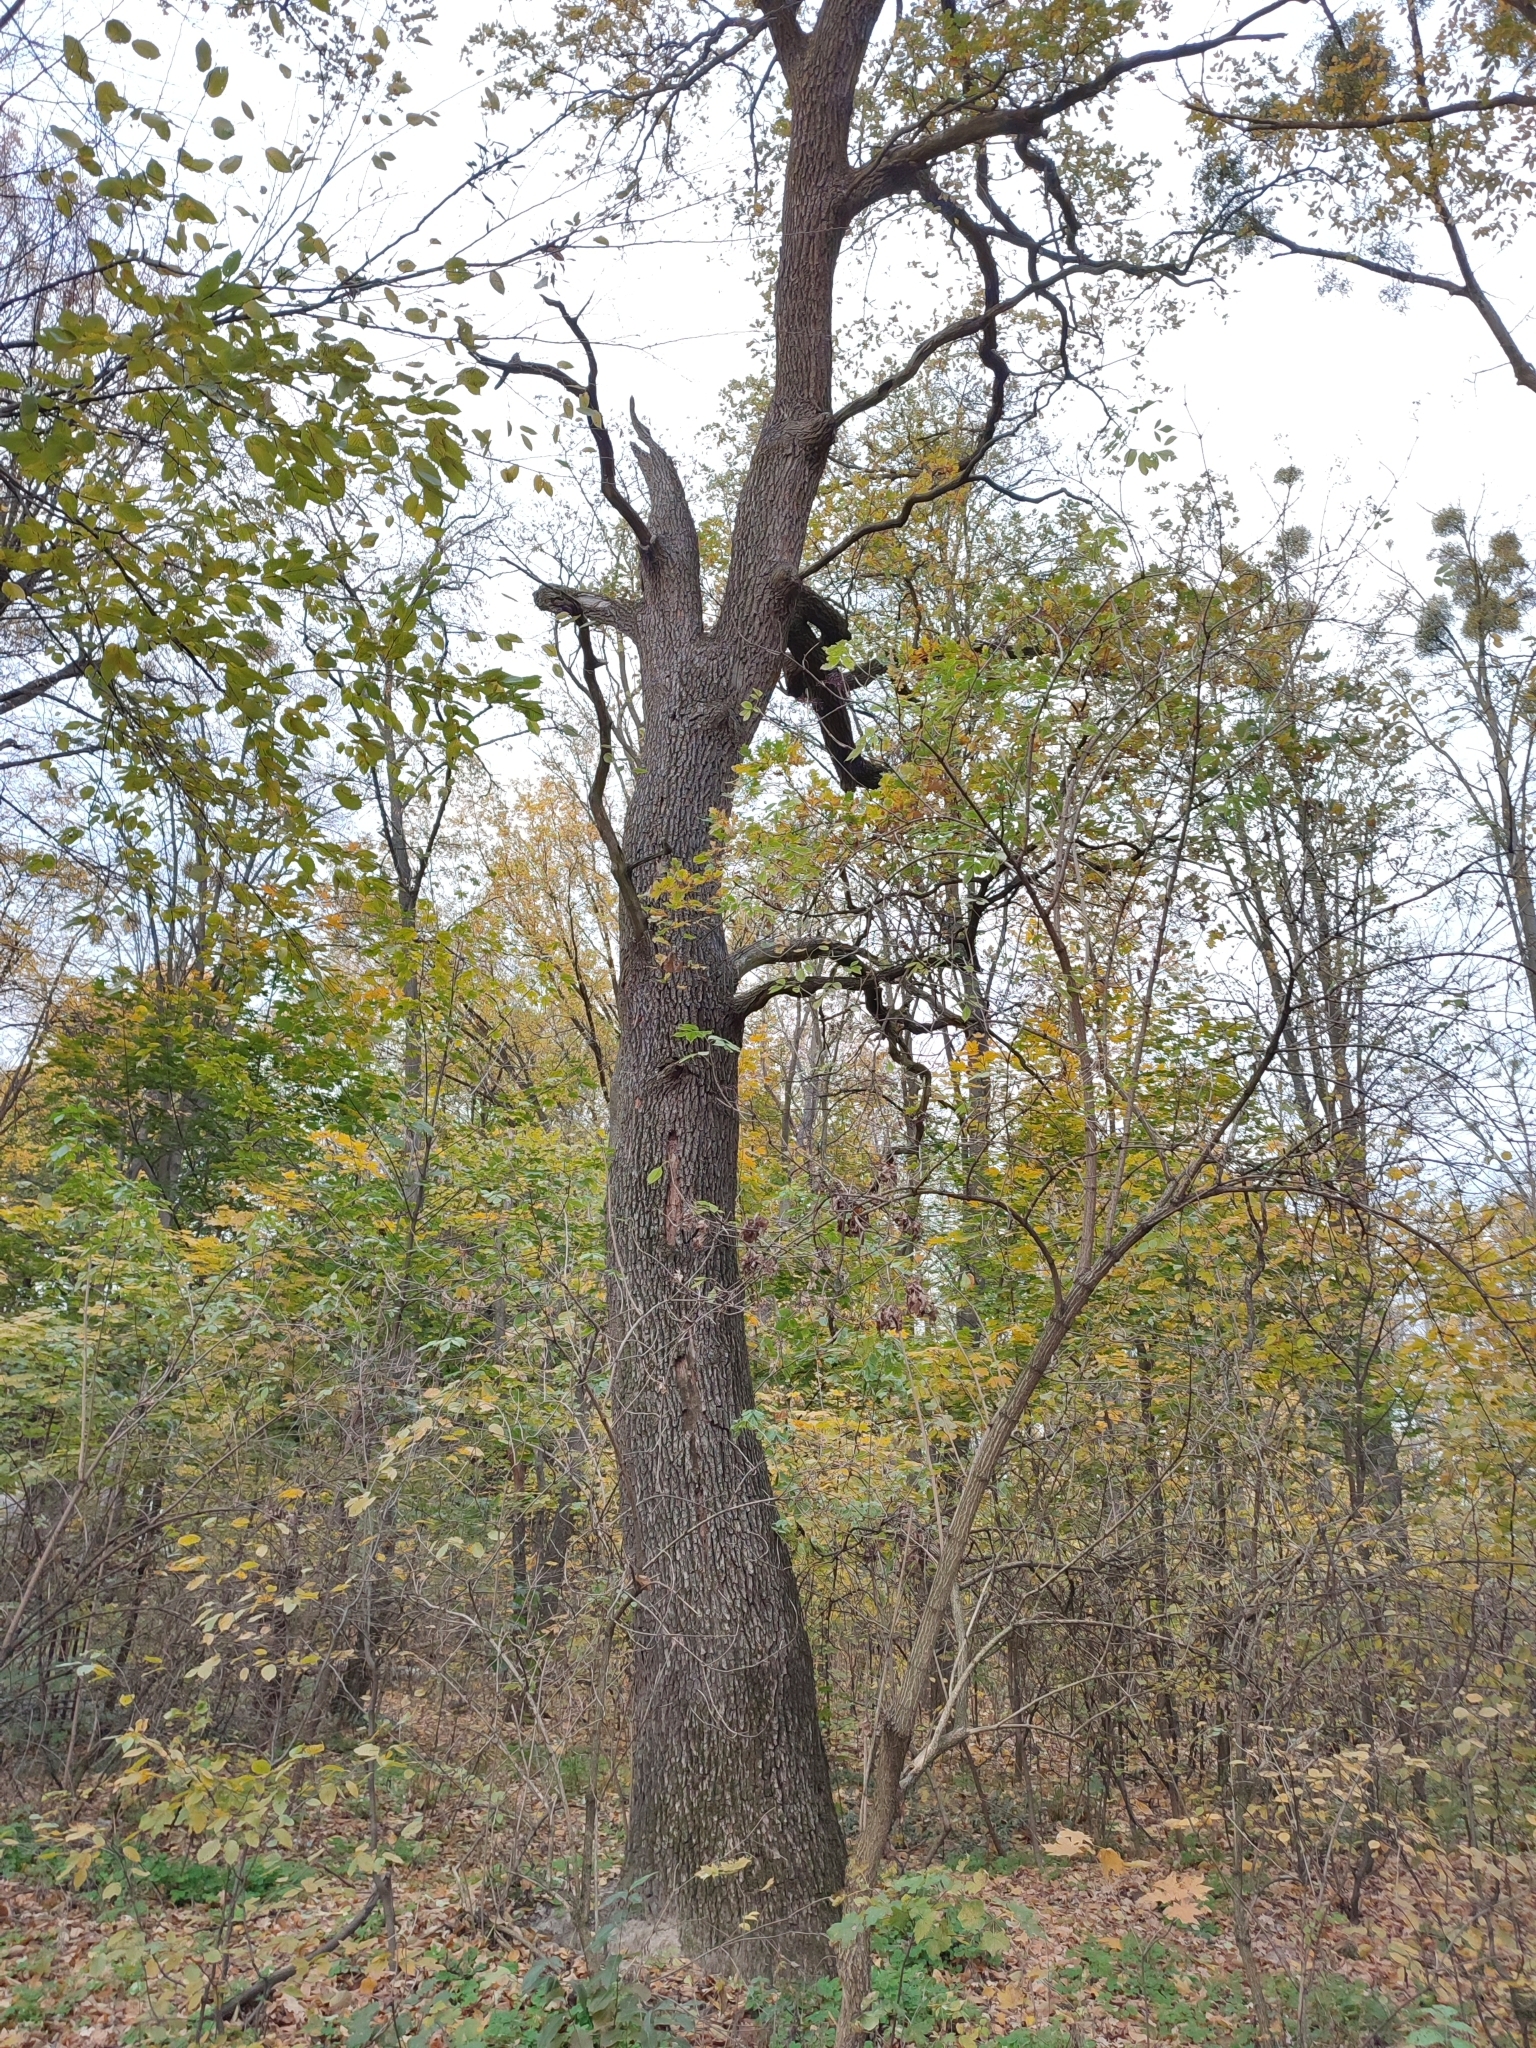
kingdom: Plantae
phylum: Tracheophyta
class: Magnoliopsida
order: Fagales
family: Fagaceae
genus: Quercus
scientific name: Quercus robur
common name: Pedunculate oak
